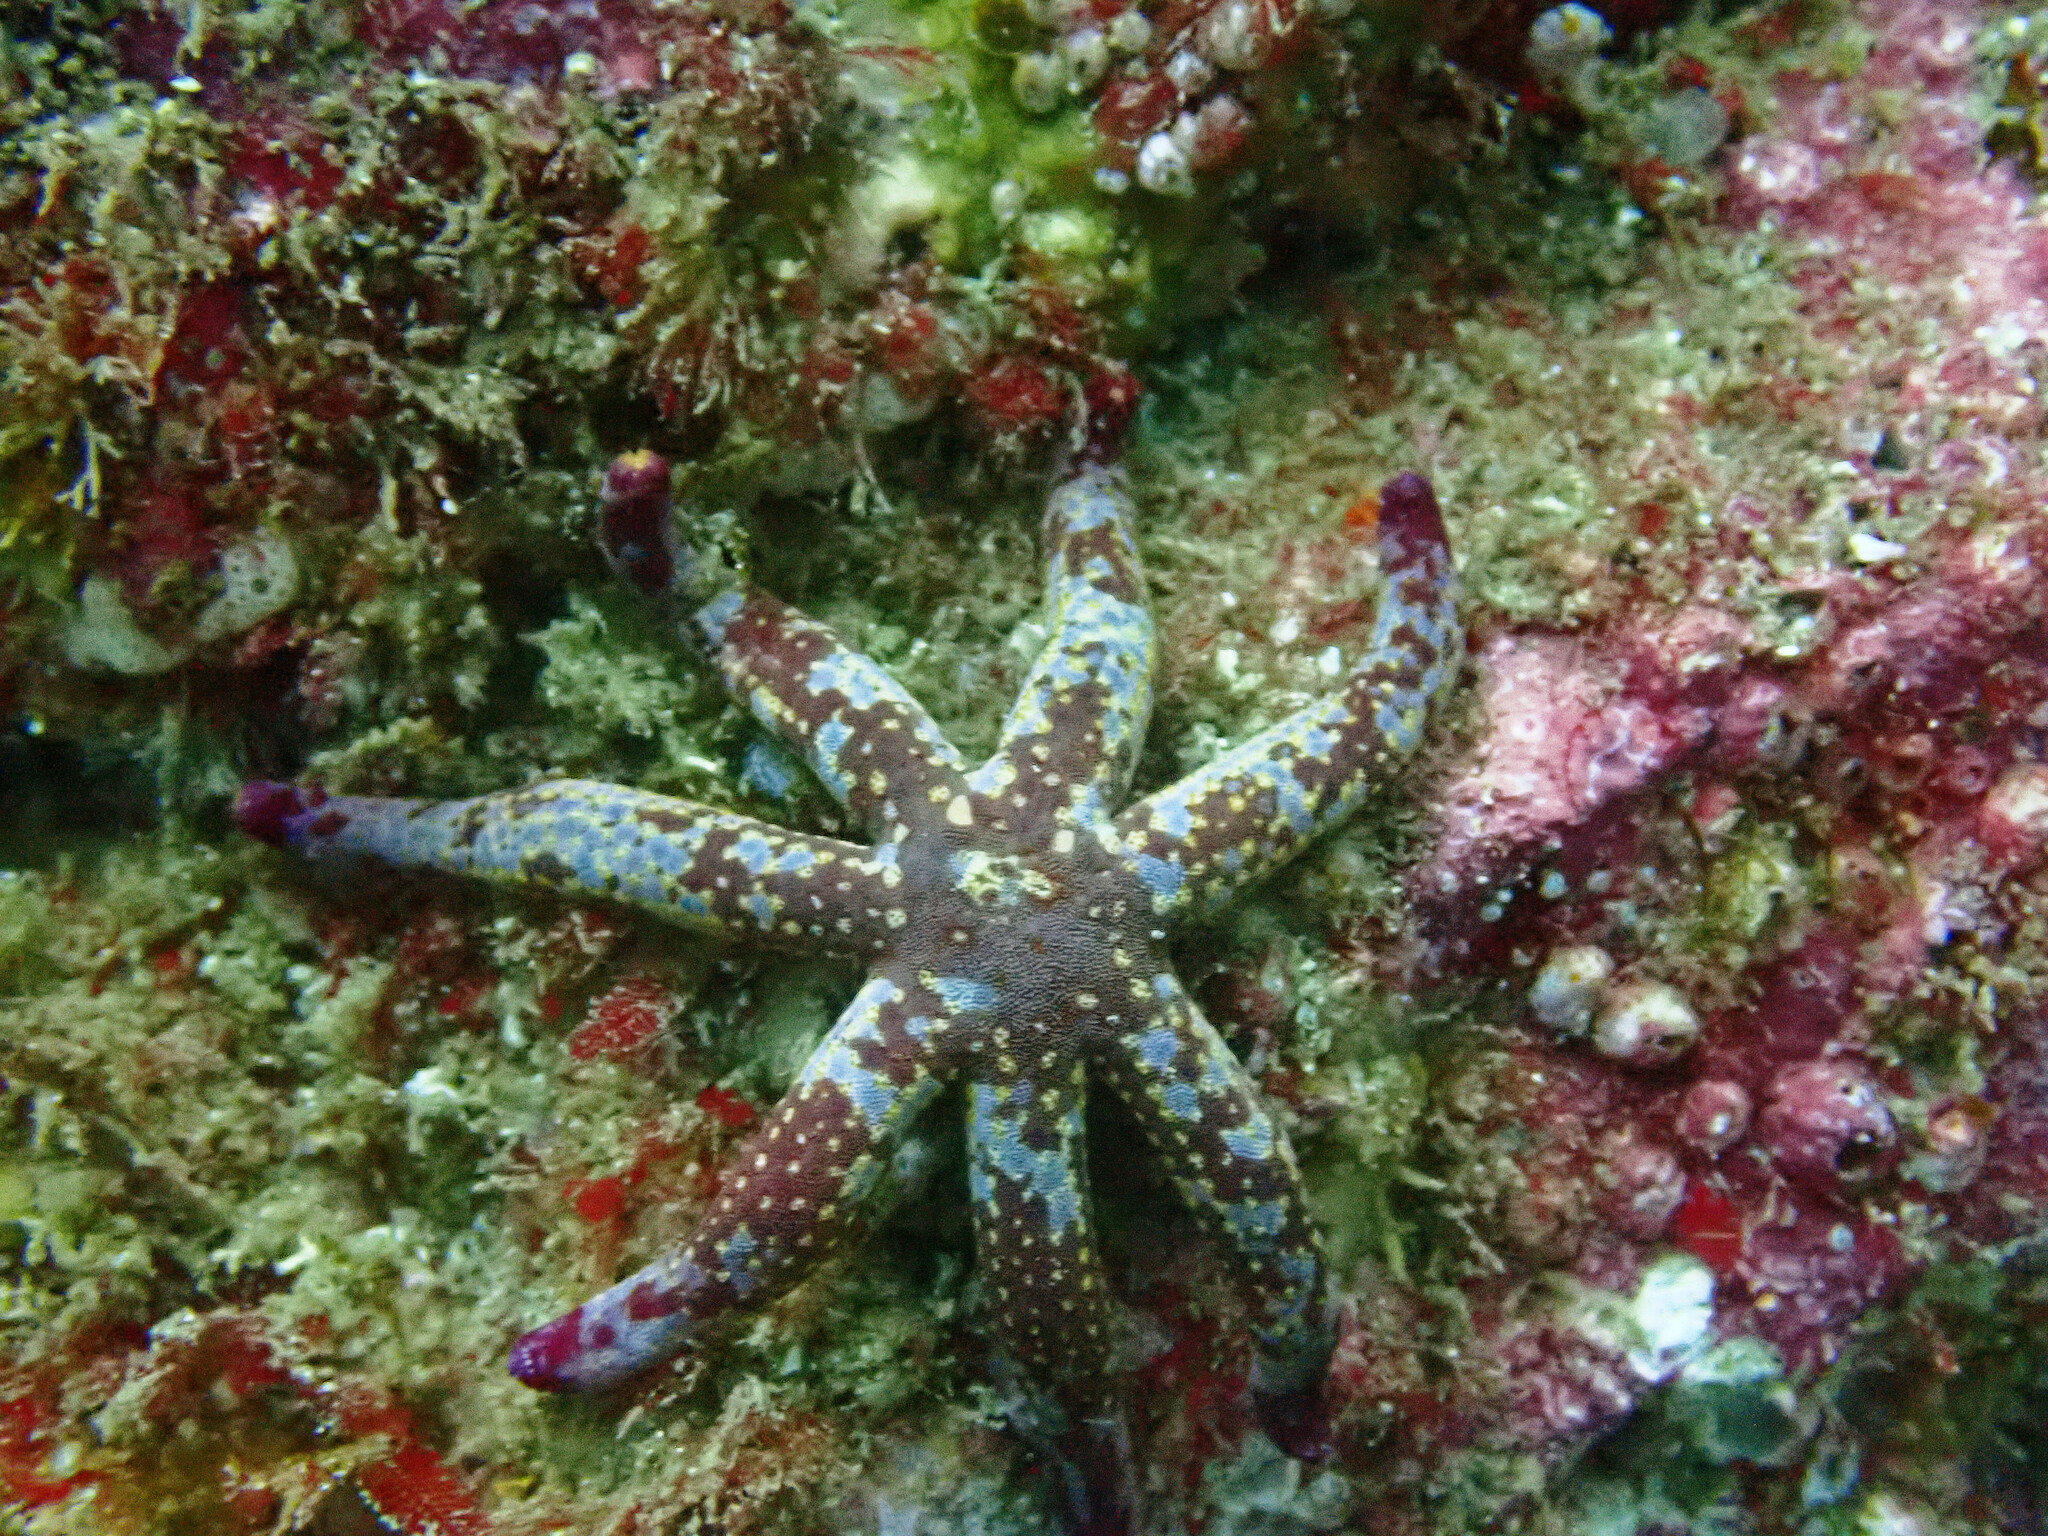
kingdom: Animalia
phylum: Echinodermata
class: Asteroidea
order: Valvatida
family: Ophidiasteridae
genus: Linckia
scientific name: Linckia columbiae
